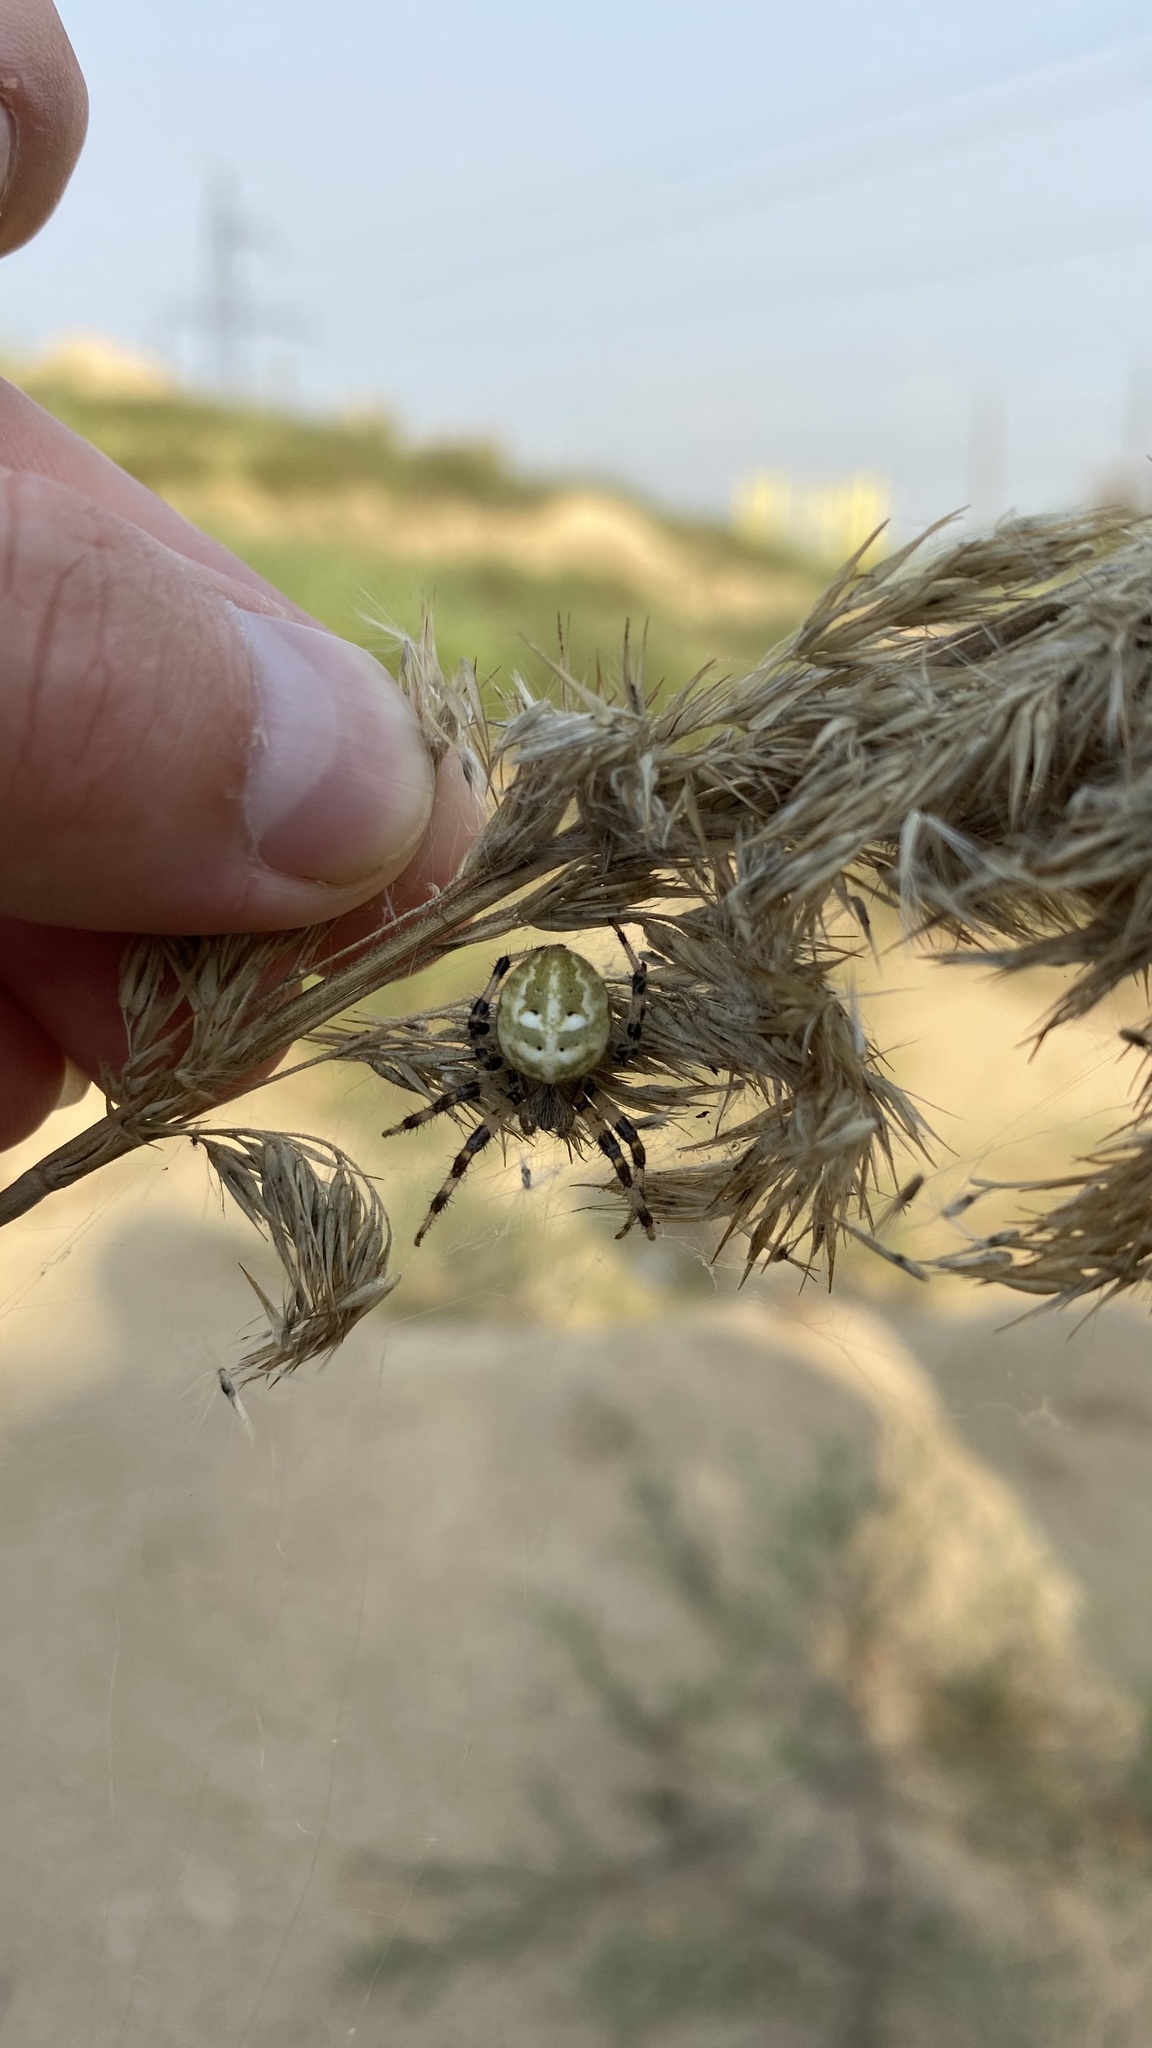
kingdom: Animalia
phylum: Arthropoda
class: Arachnida
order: Araneae
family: Araneidae
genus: Araneus
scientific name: Araneus quadratus
